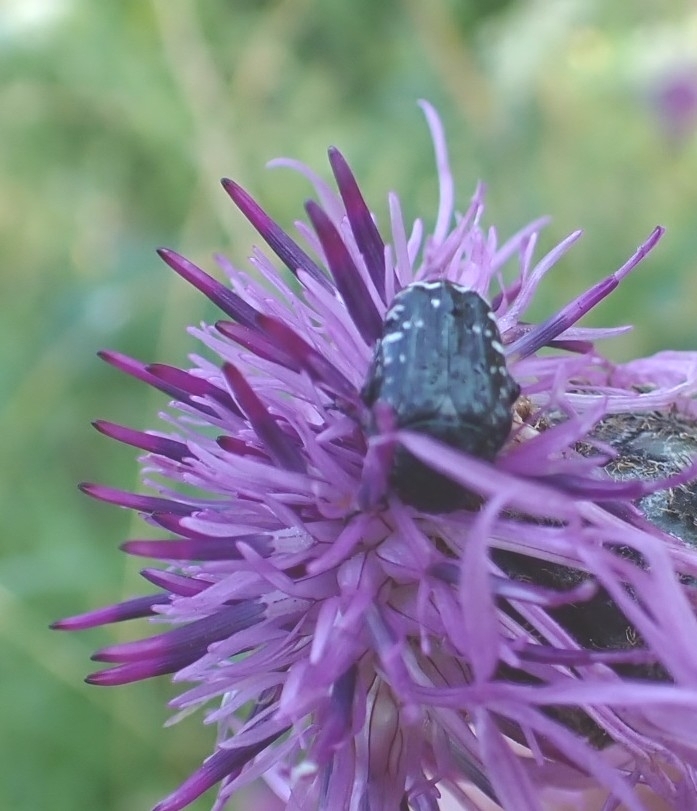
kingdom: Animalia
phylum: Arthropoda
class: Insecta
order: Coleoptera
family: Scarabaeidae
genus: Oxythyrea
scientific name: Oxythyrea funesta
